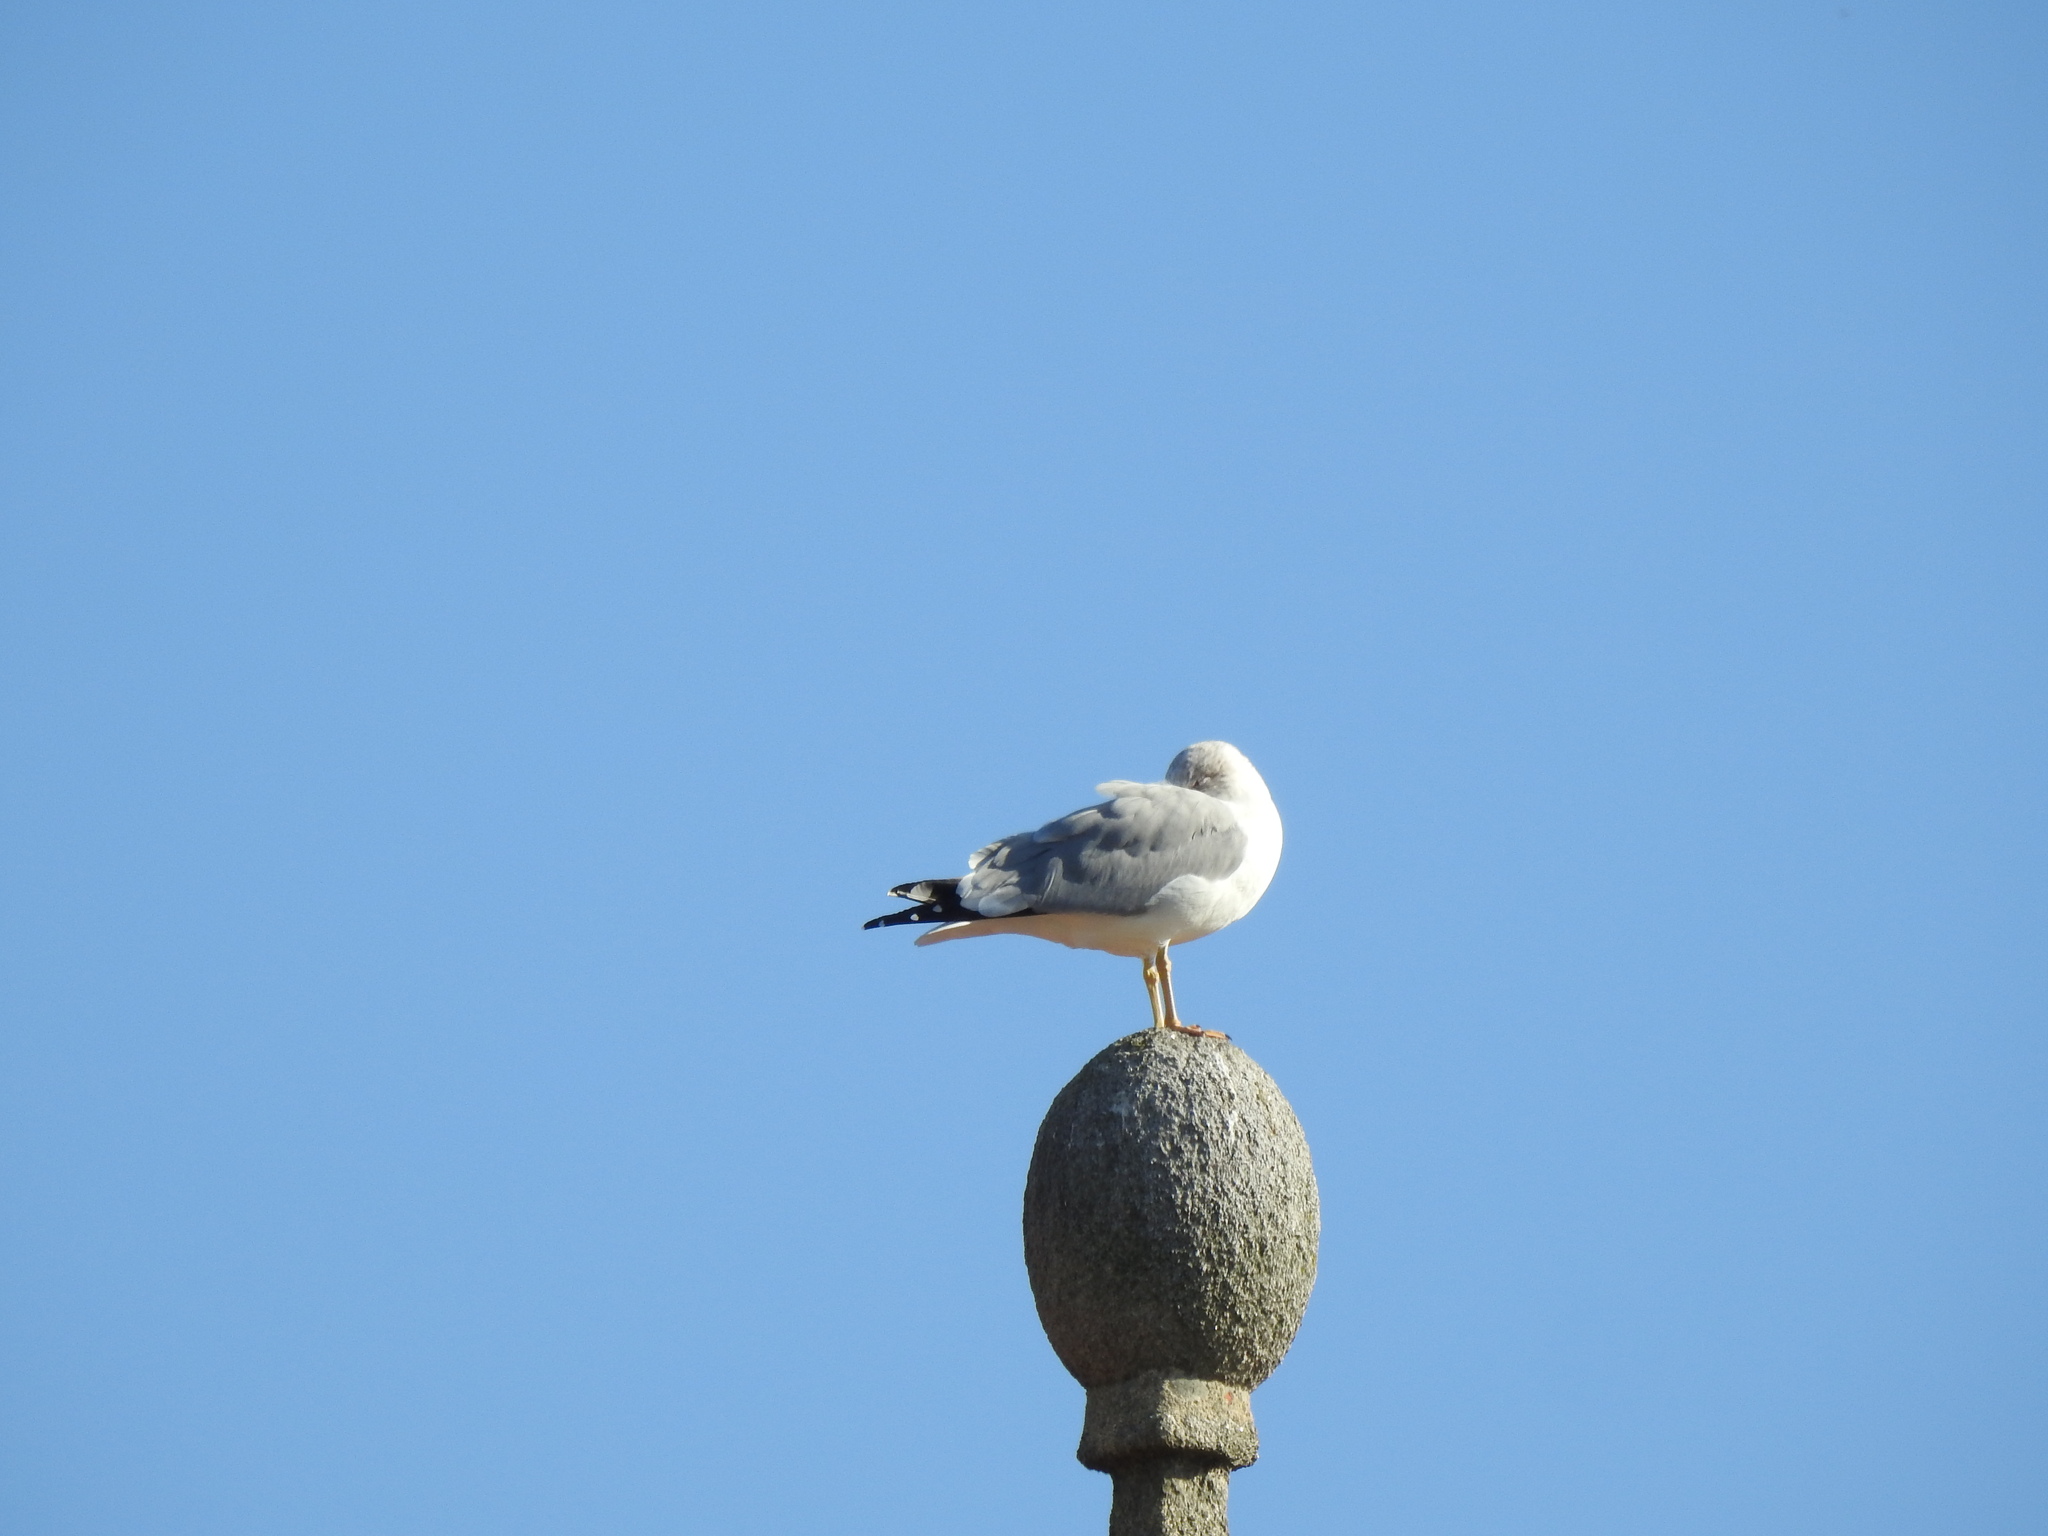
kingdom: Animalia
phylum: Chordata
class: Aves
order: Charadriiformes
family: Laridae
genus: Larus
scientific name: Larus michahellis
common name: Yellow-legged gull
